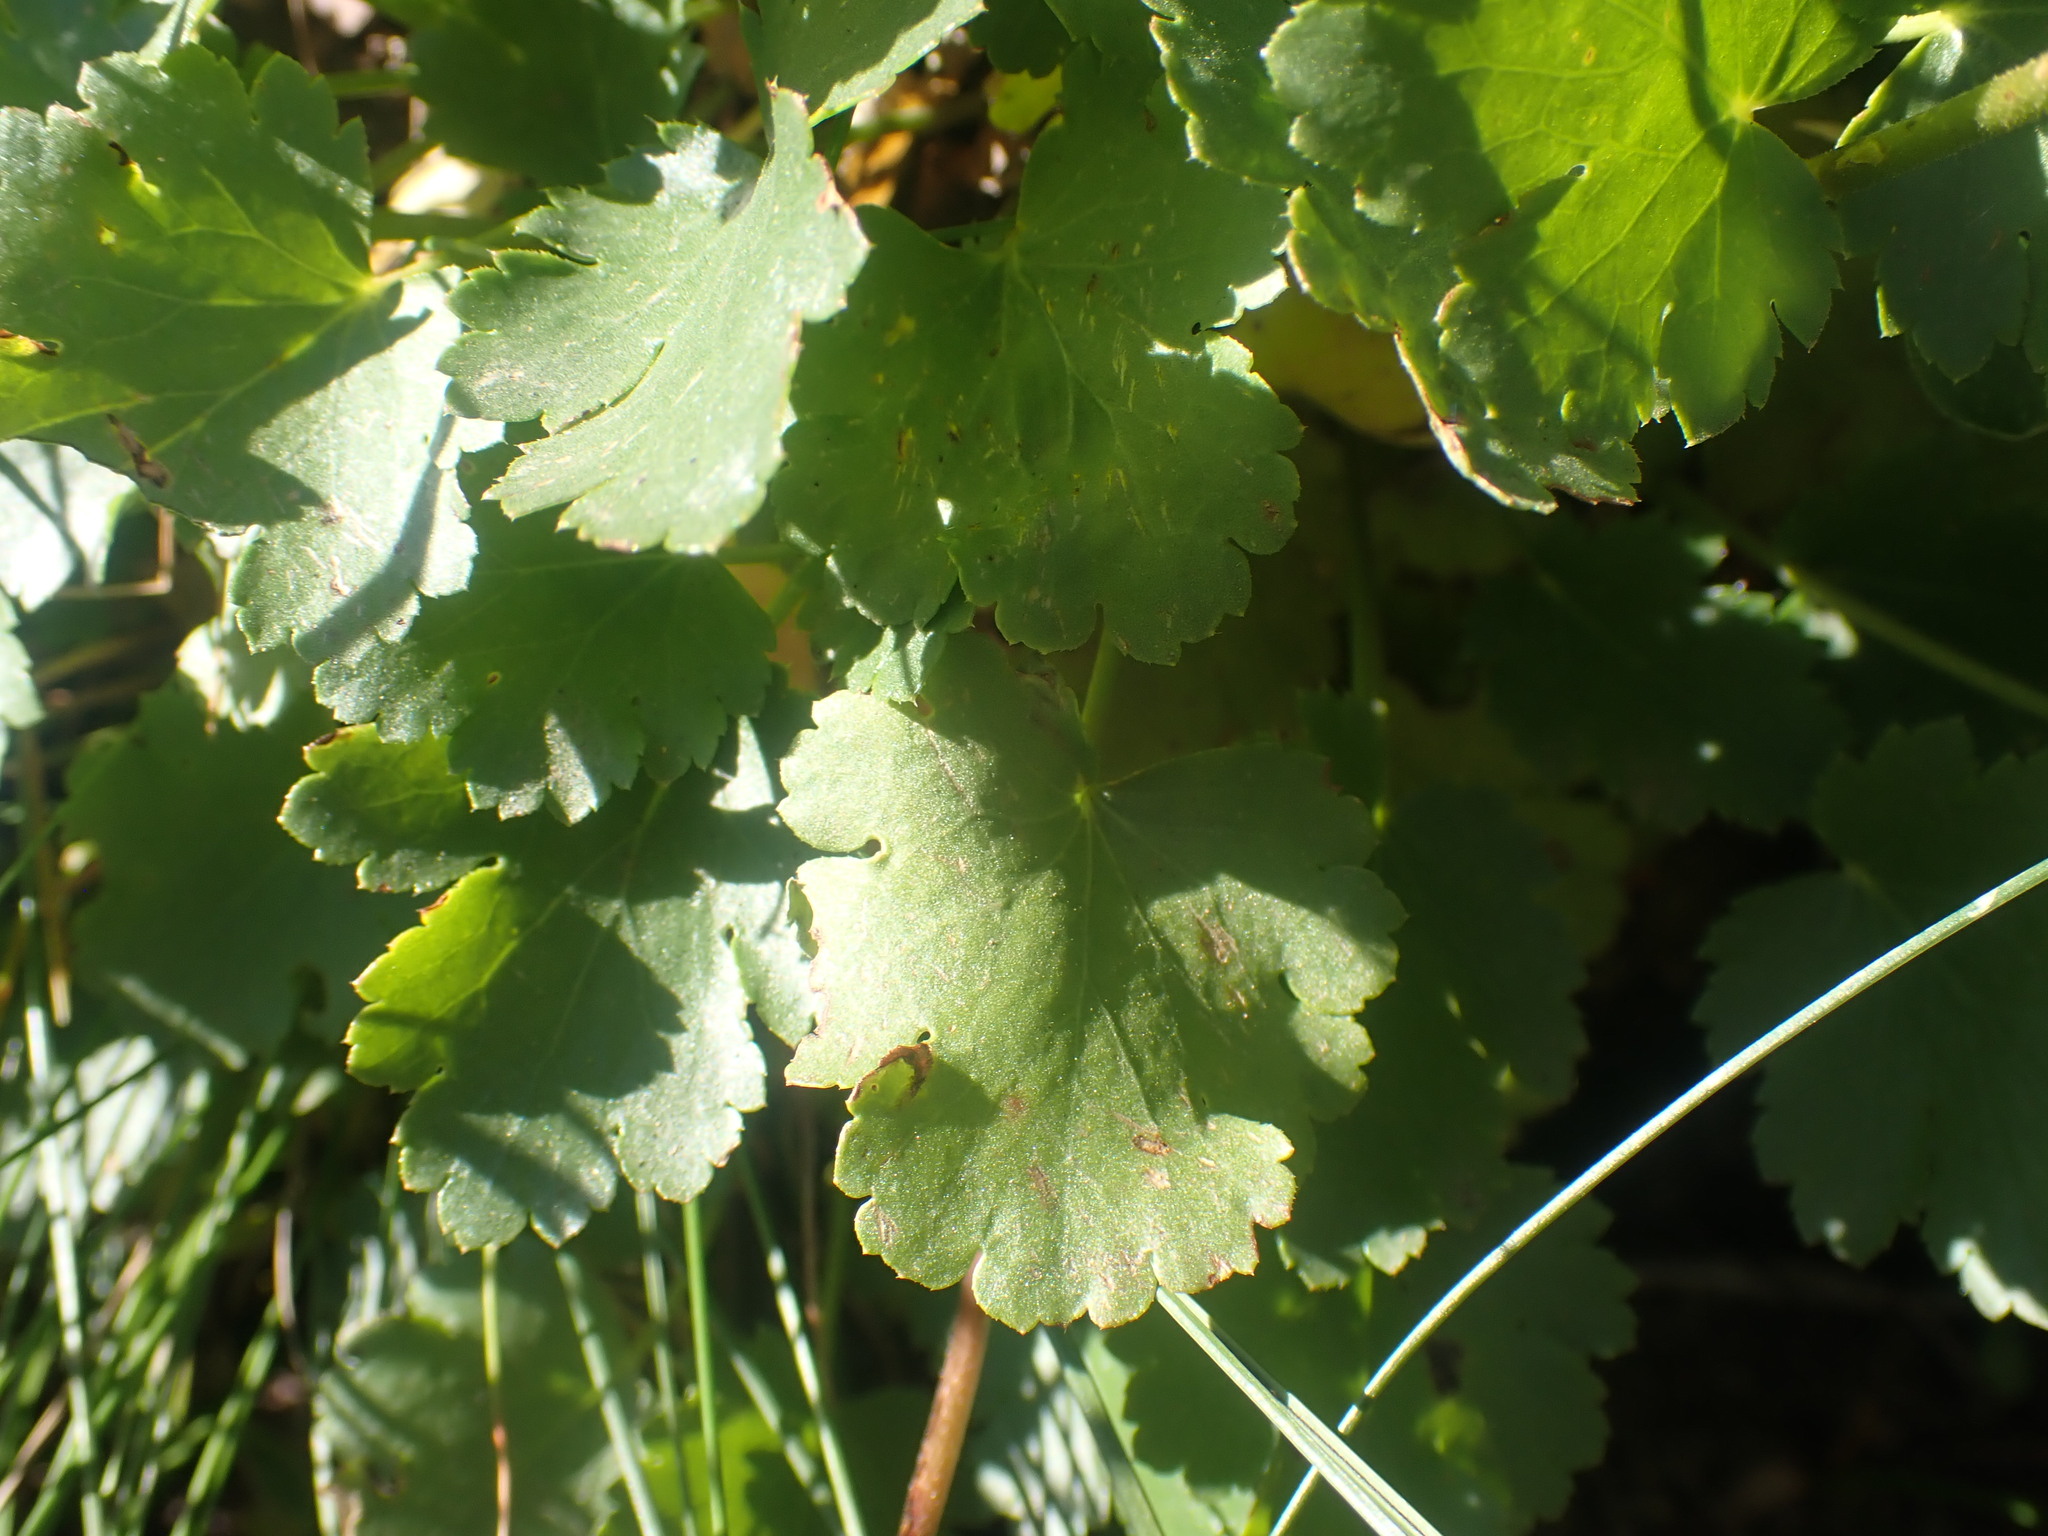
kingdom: Plantae
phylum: Tracheophyta
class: Magnoliopsida
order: Saxifragales
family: Saxifragaceae
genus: Heuchera
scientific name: Heuchera cylindrica
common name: Mat alumroot
